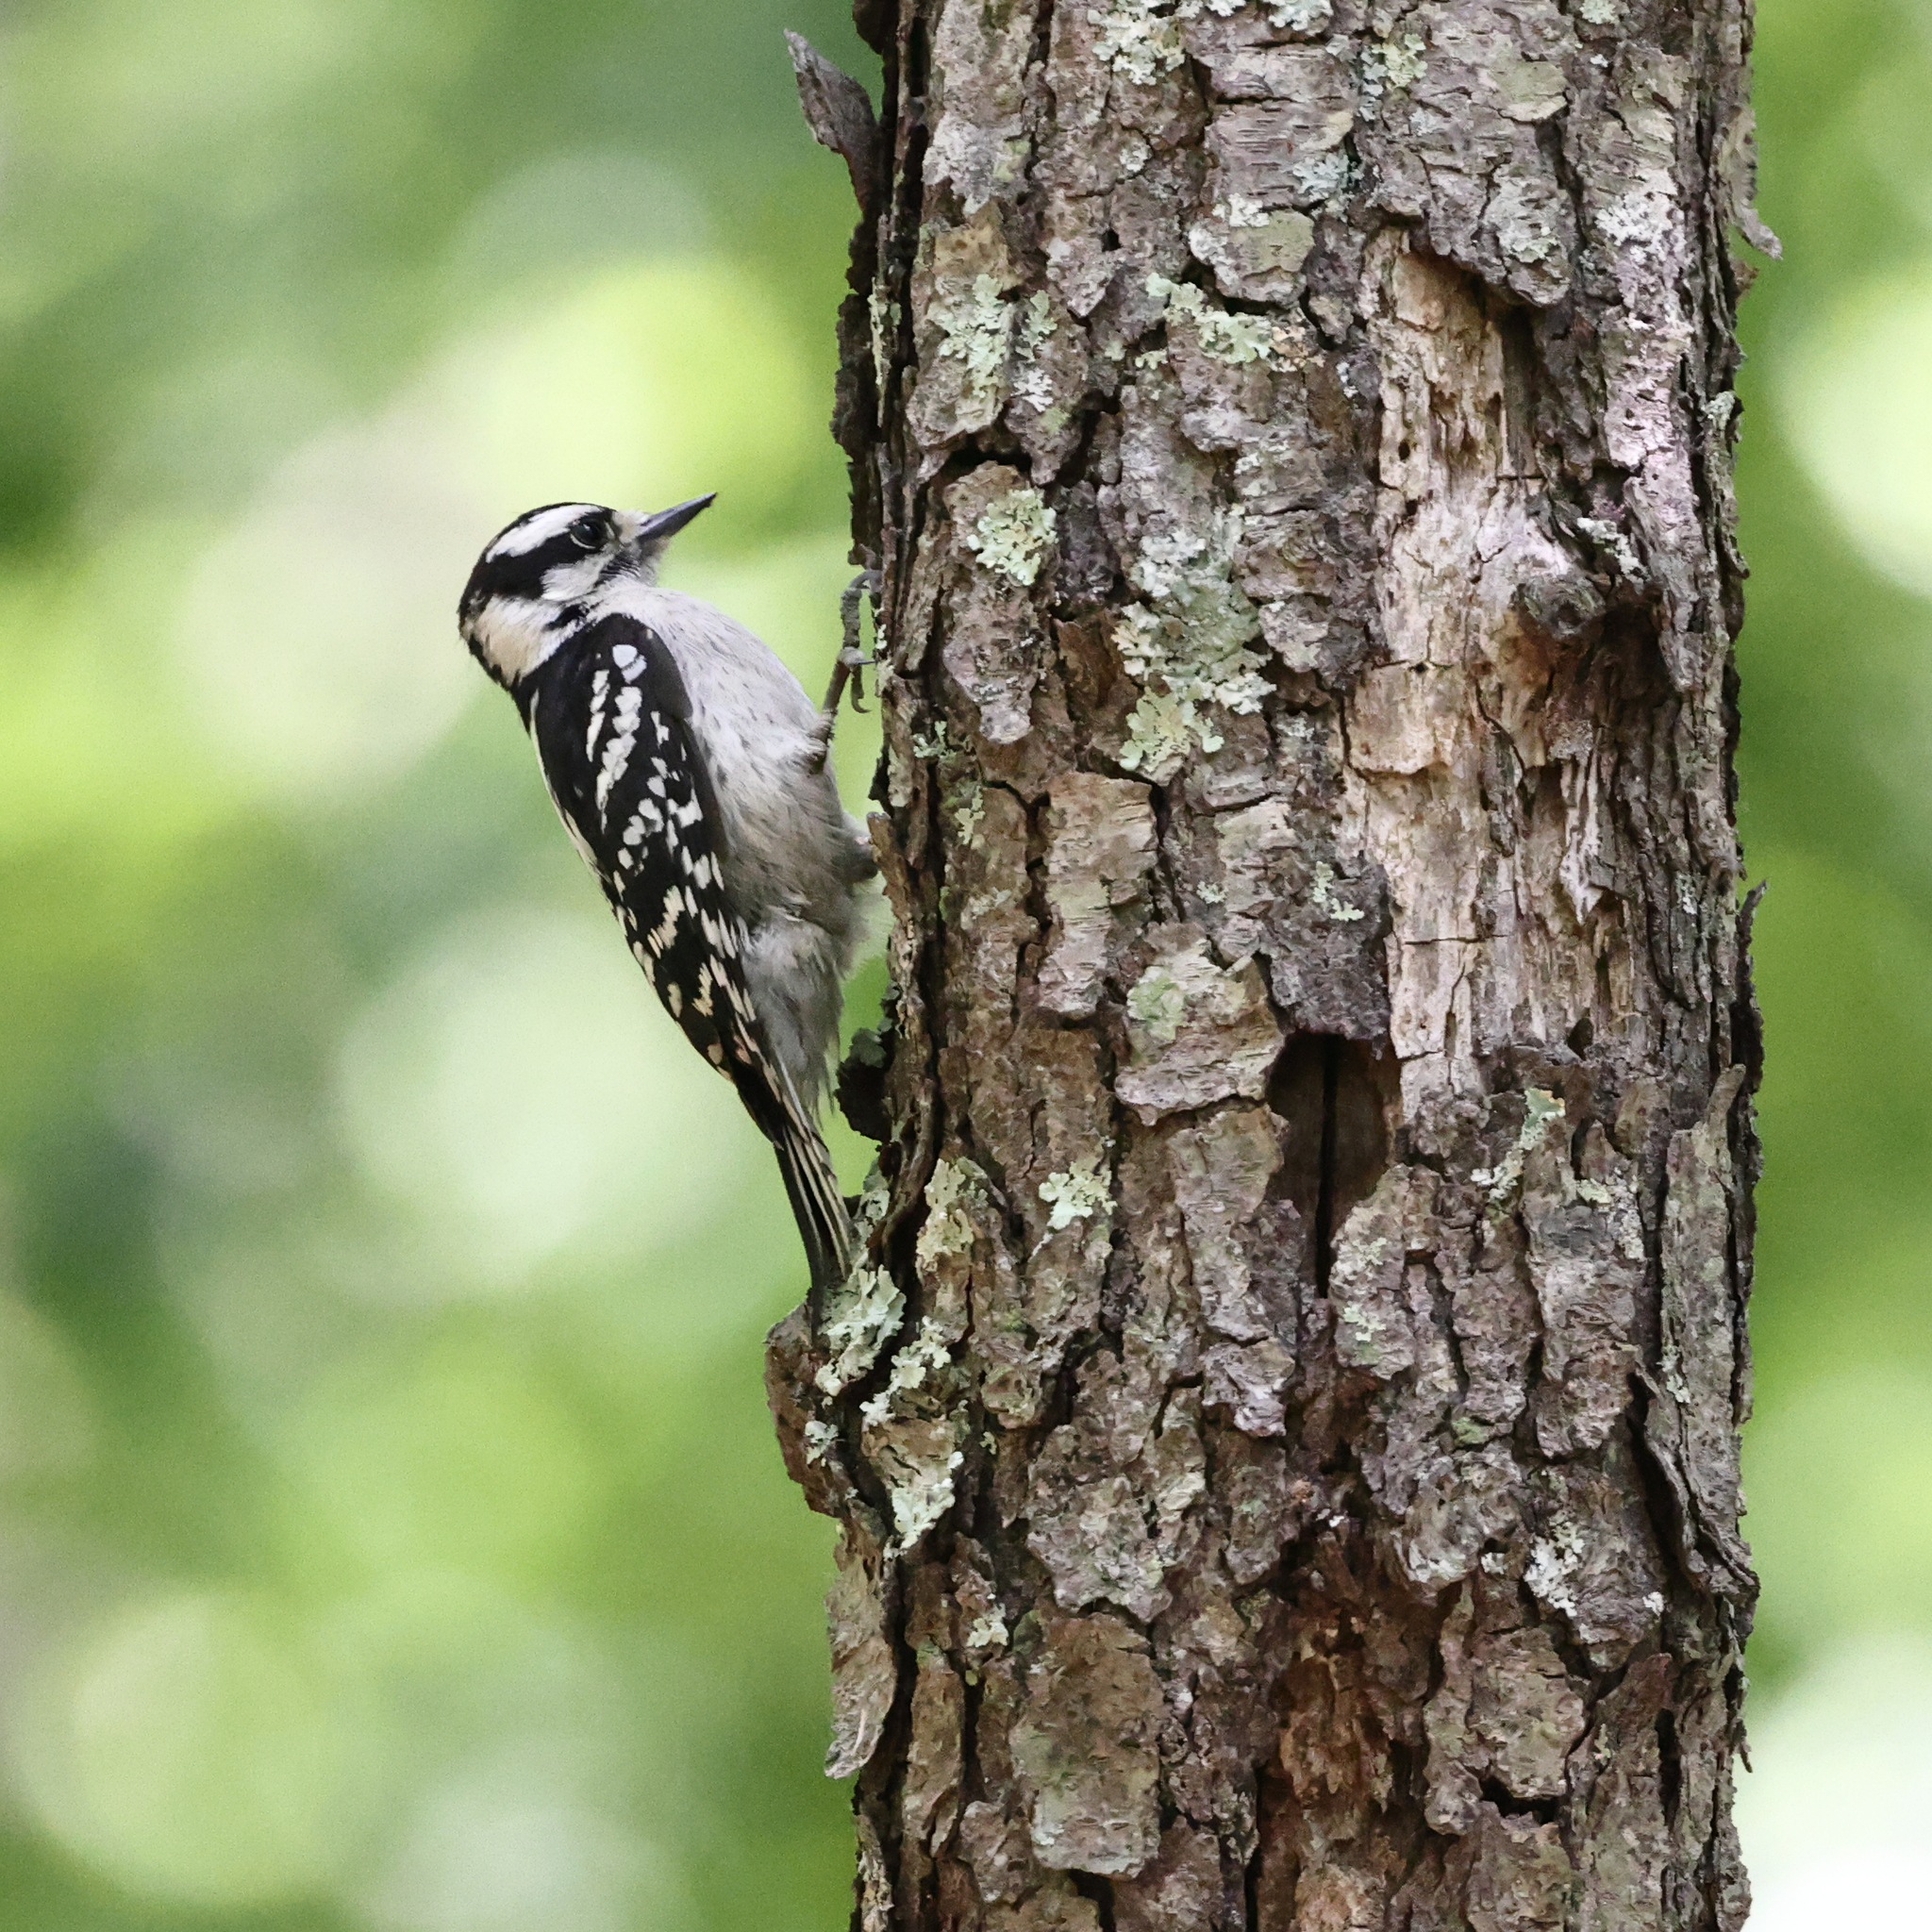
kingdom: Animalia
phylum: Chordata
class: Aves
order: Piciformes
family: Picidae
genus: Dryobates
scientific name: Dryobates pubescens
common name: Downy woodpecker
